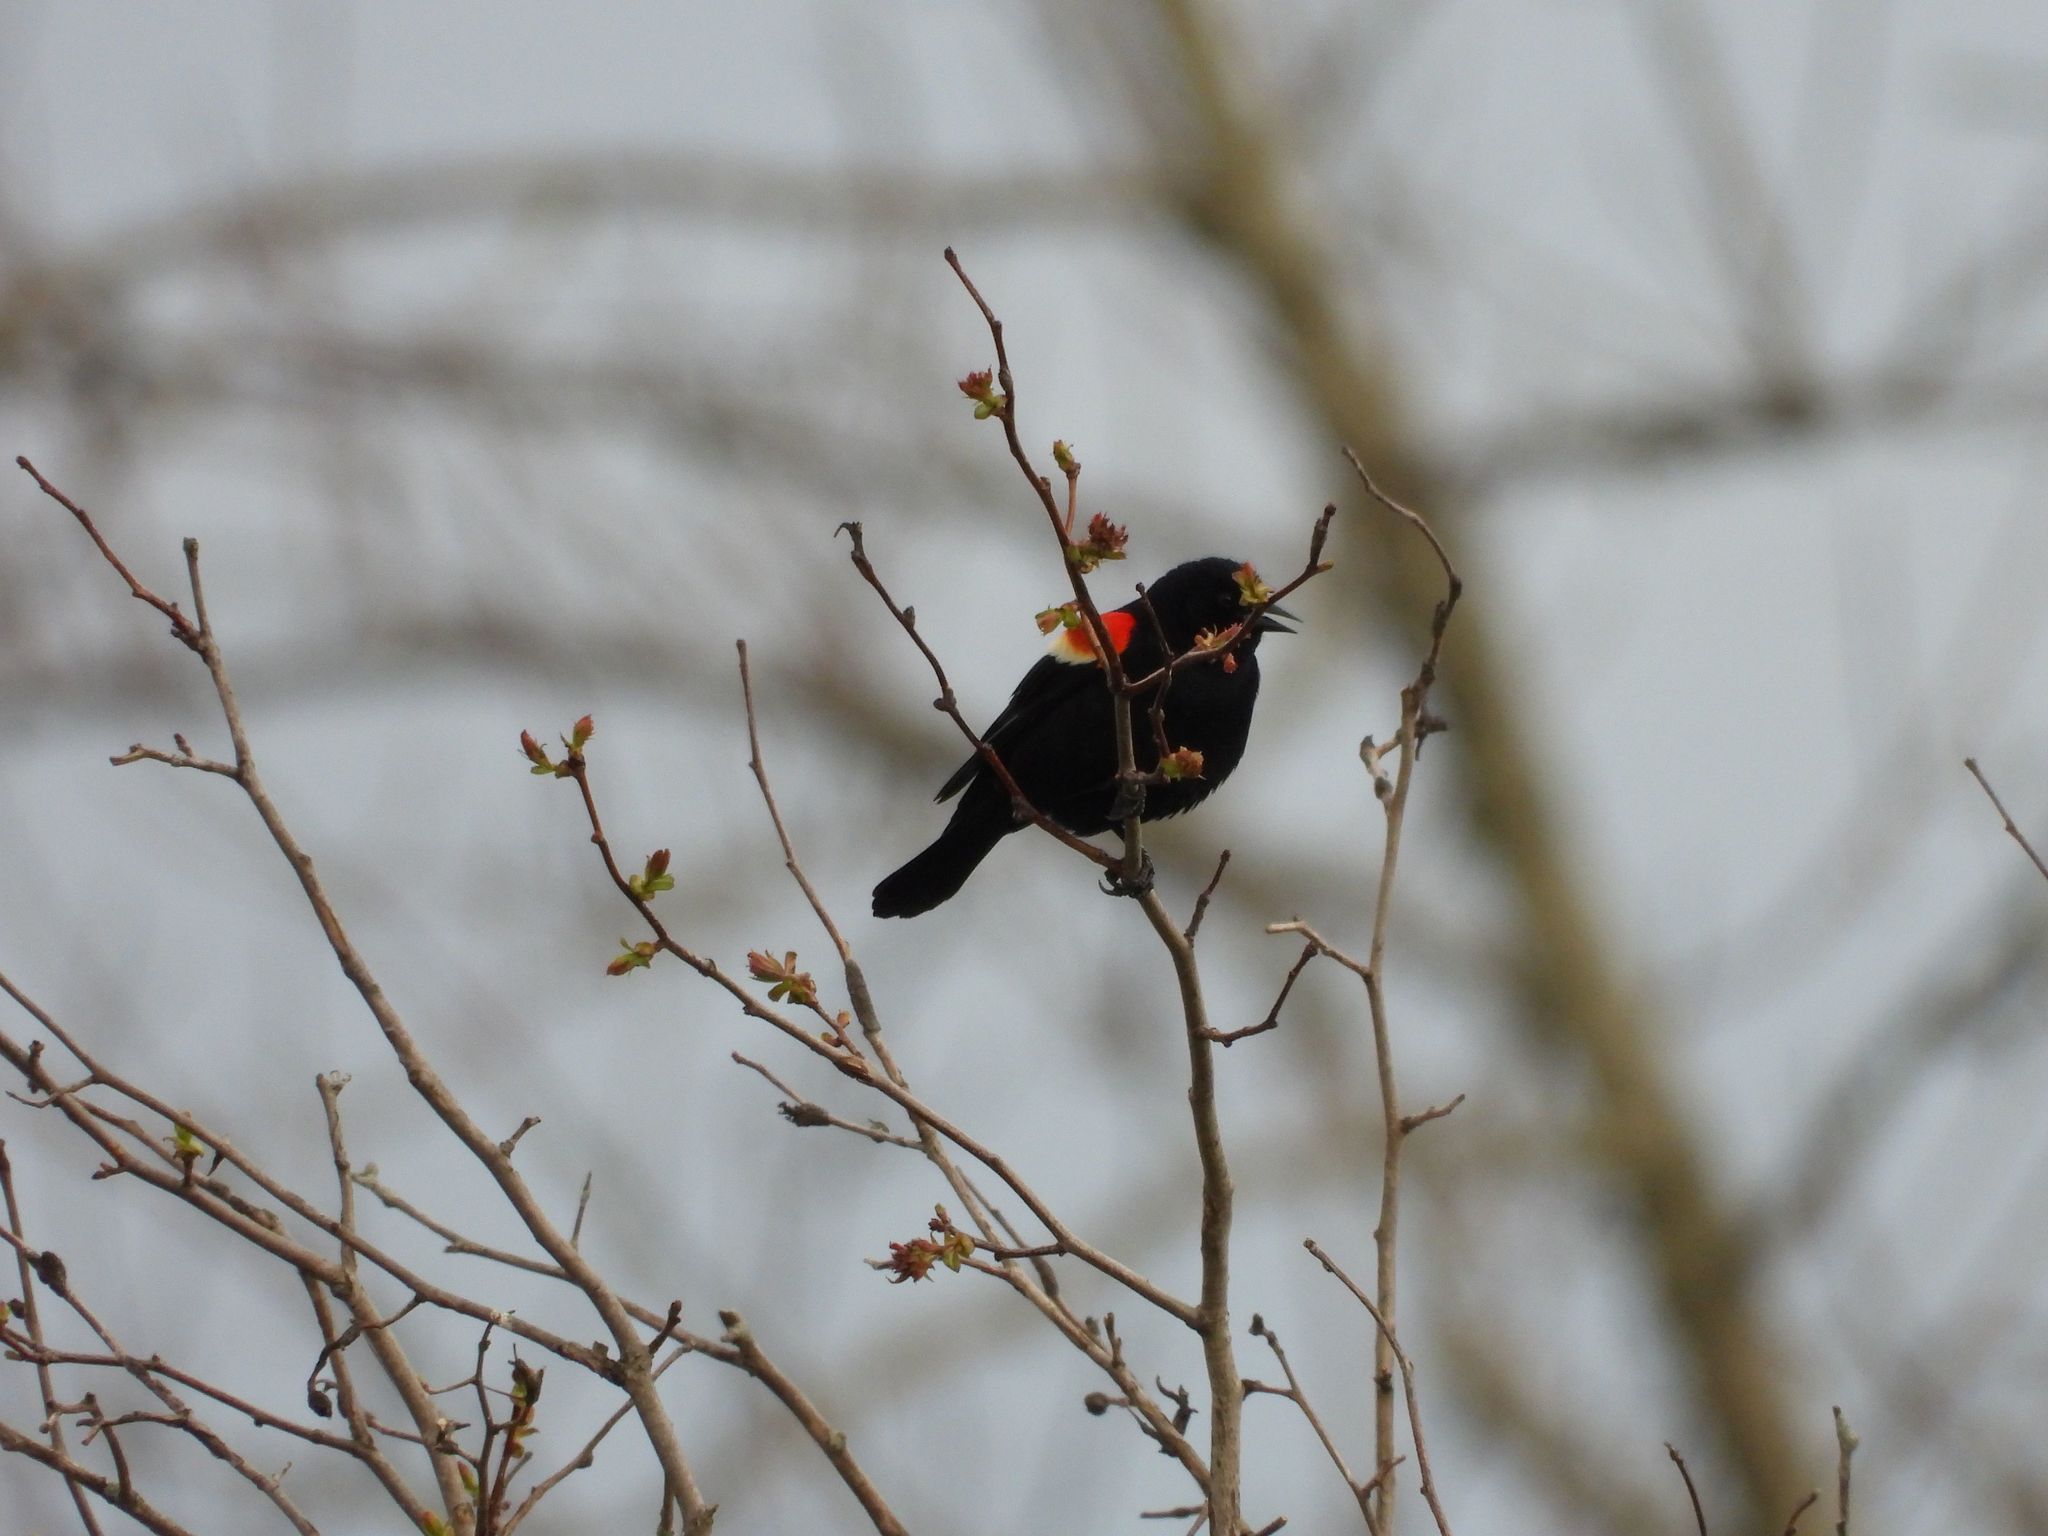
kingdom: Animalia
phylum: Chordata
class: Aves
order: Passeriformes
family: Icteridae
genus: Agelaius
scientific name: Agelaius phoeniceus
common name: Red-winged blackbird
